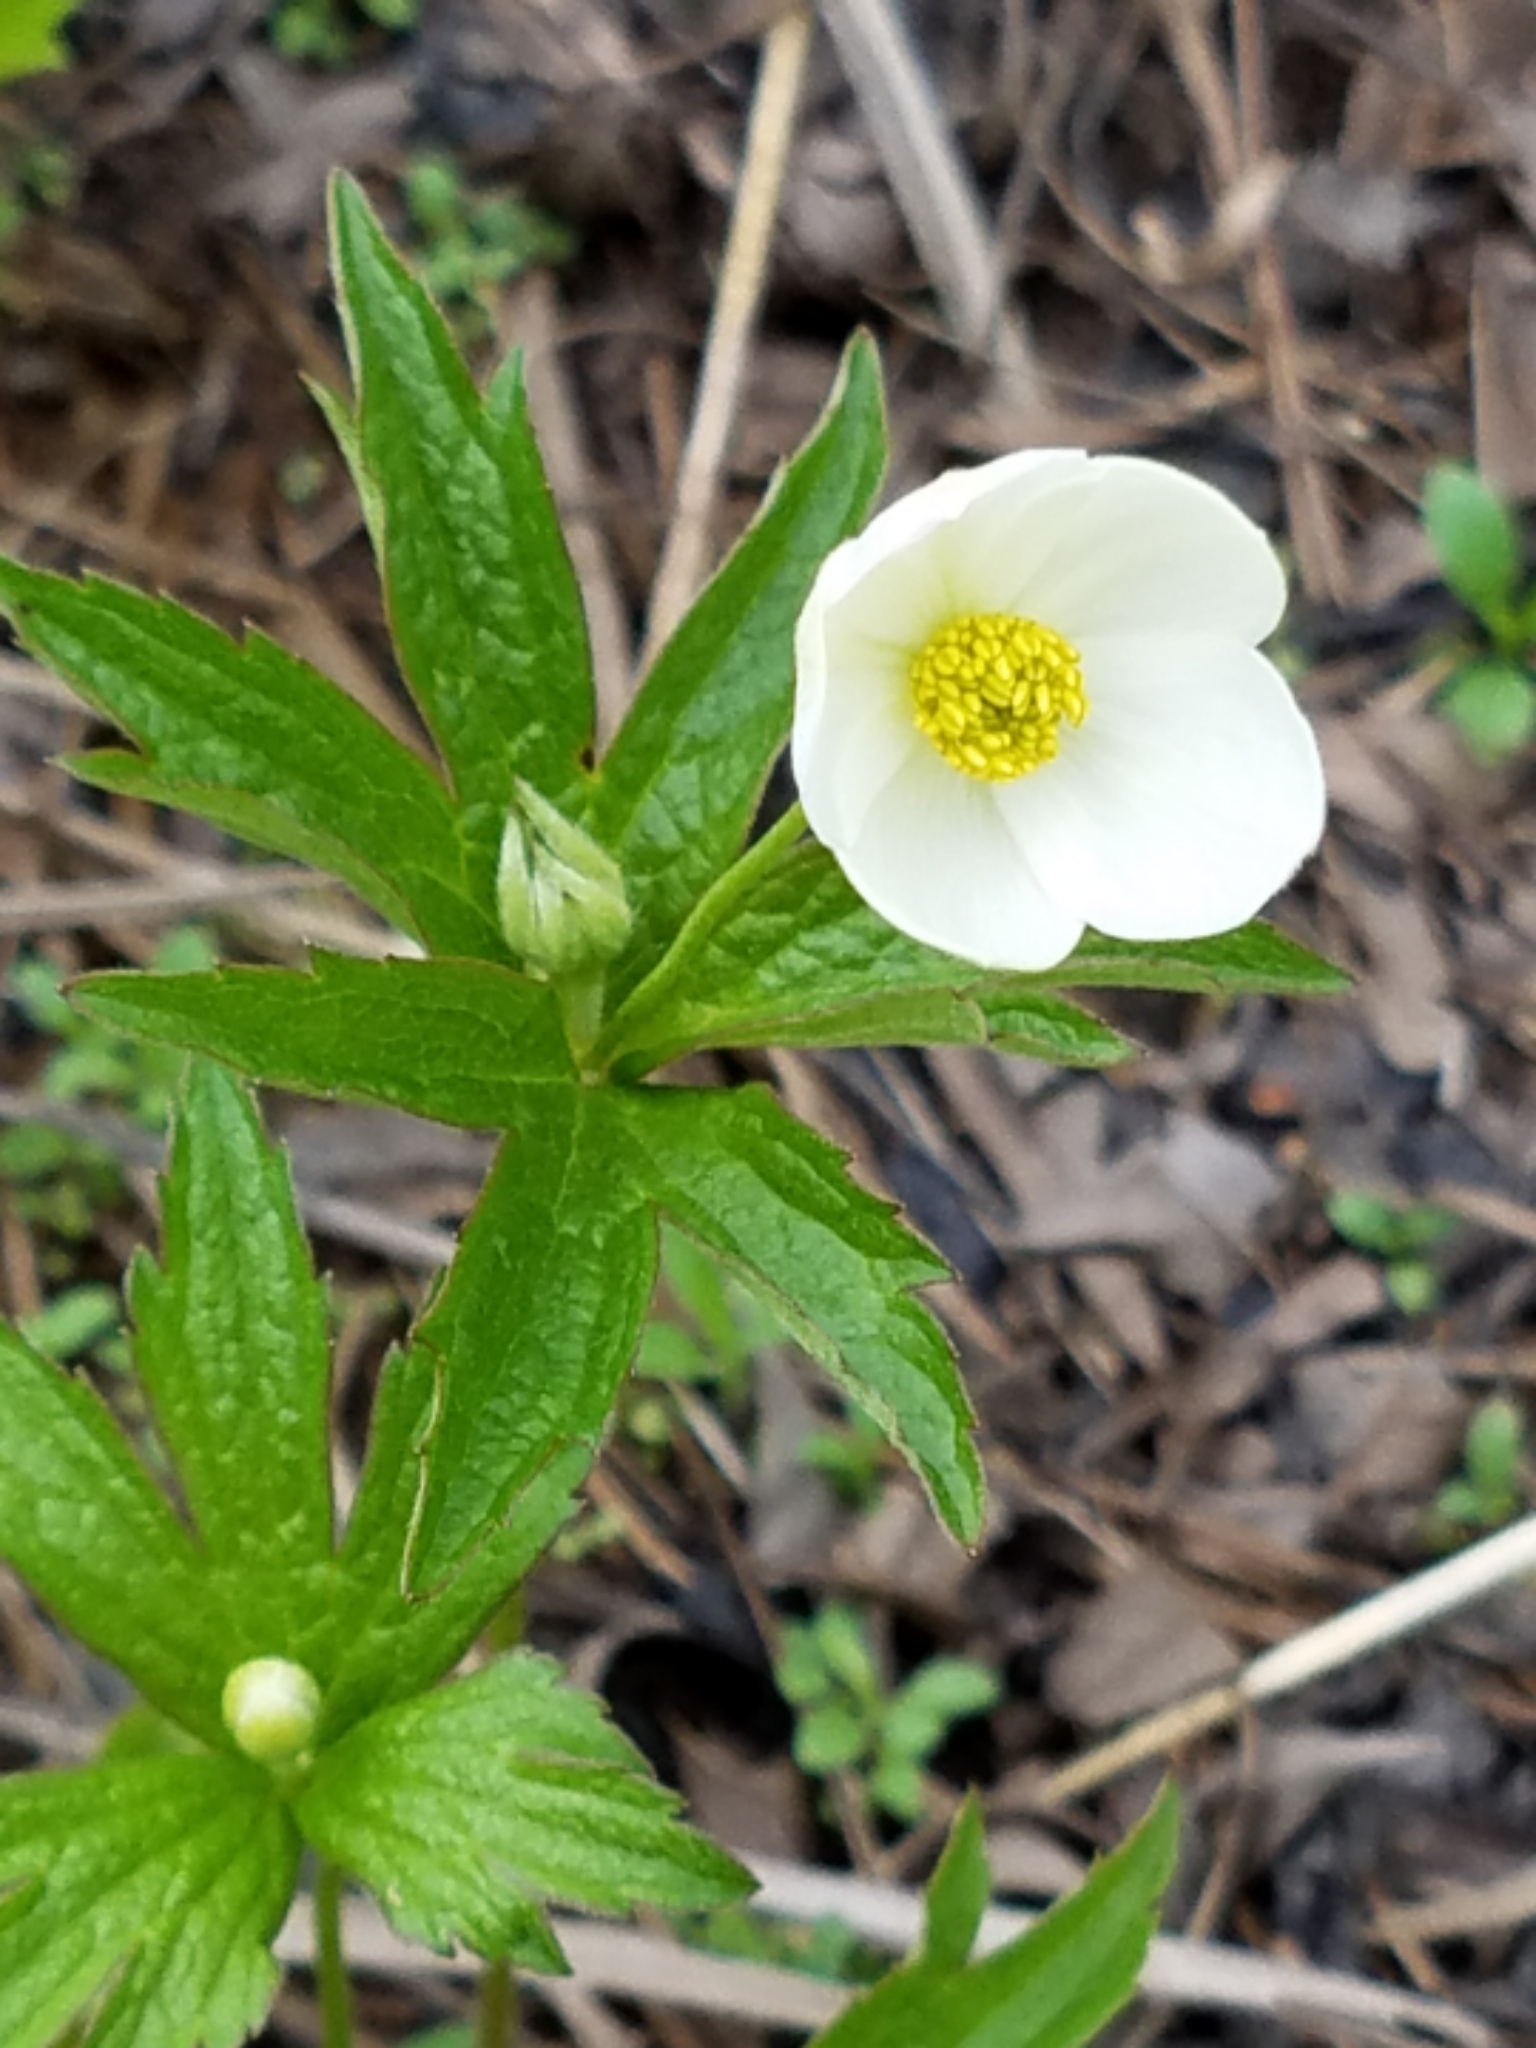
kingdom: Plantae
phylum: Tracheophyta
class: Magnoliopsida
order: Ranunculales
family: Ranunculaceae
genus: Anemonastrum
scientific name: Anemonastrum canadense
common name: Canada anemone
